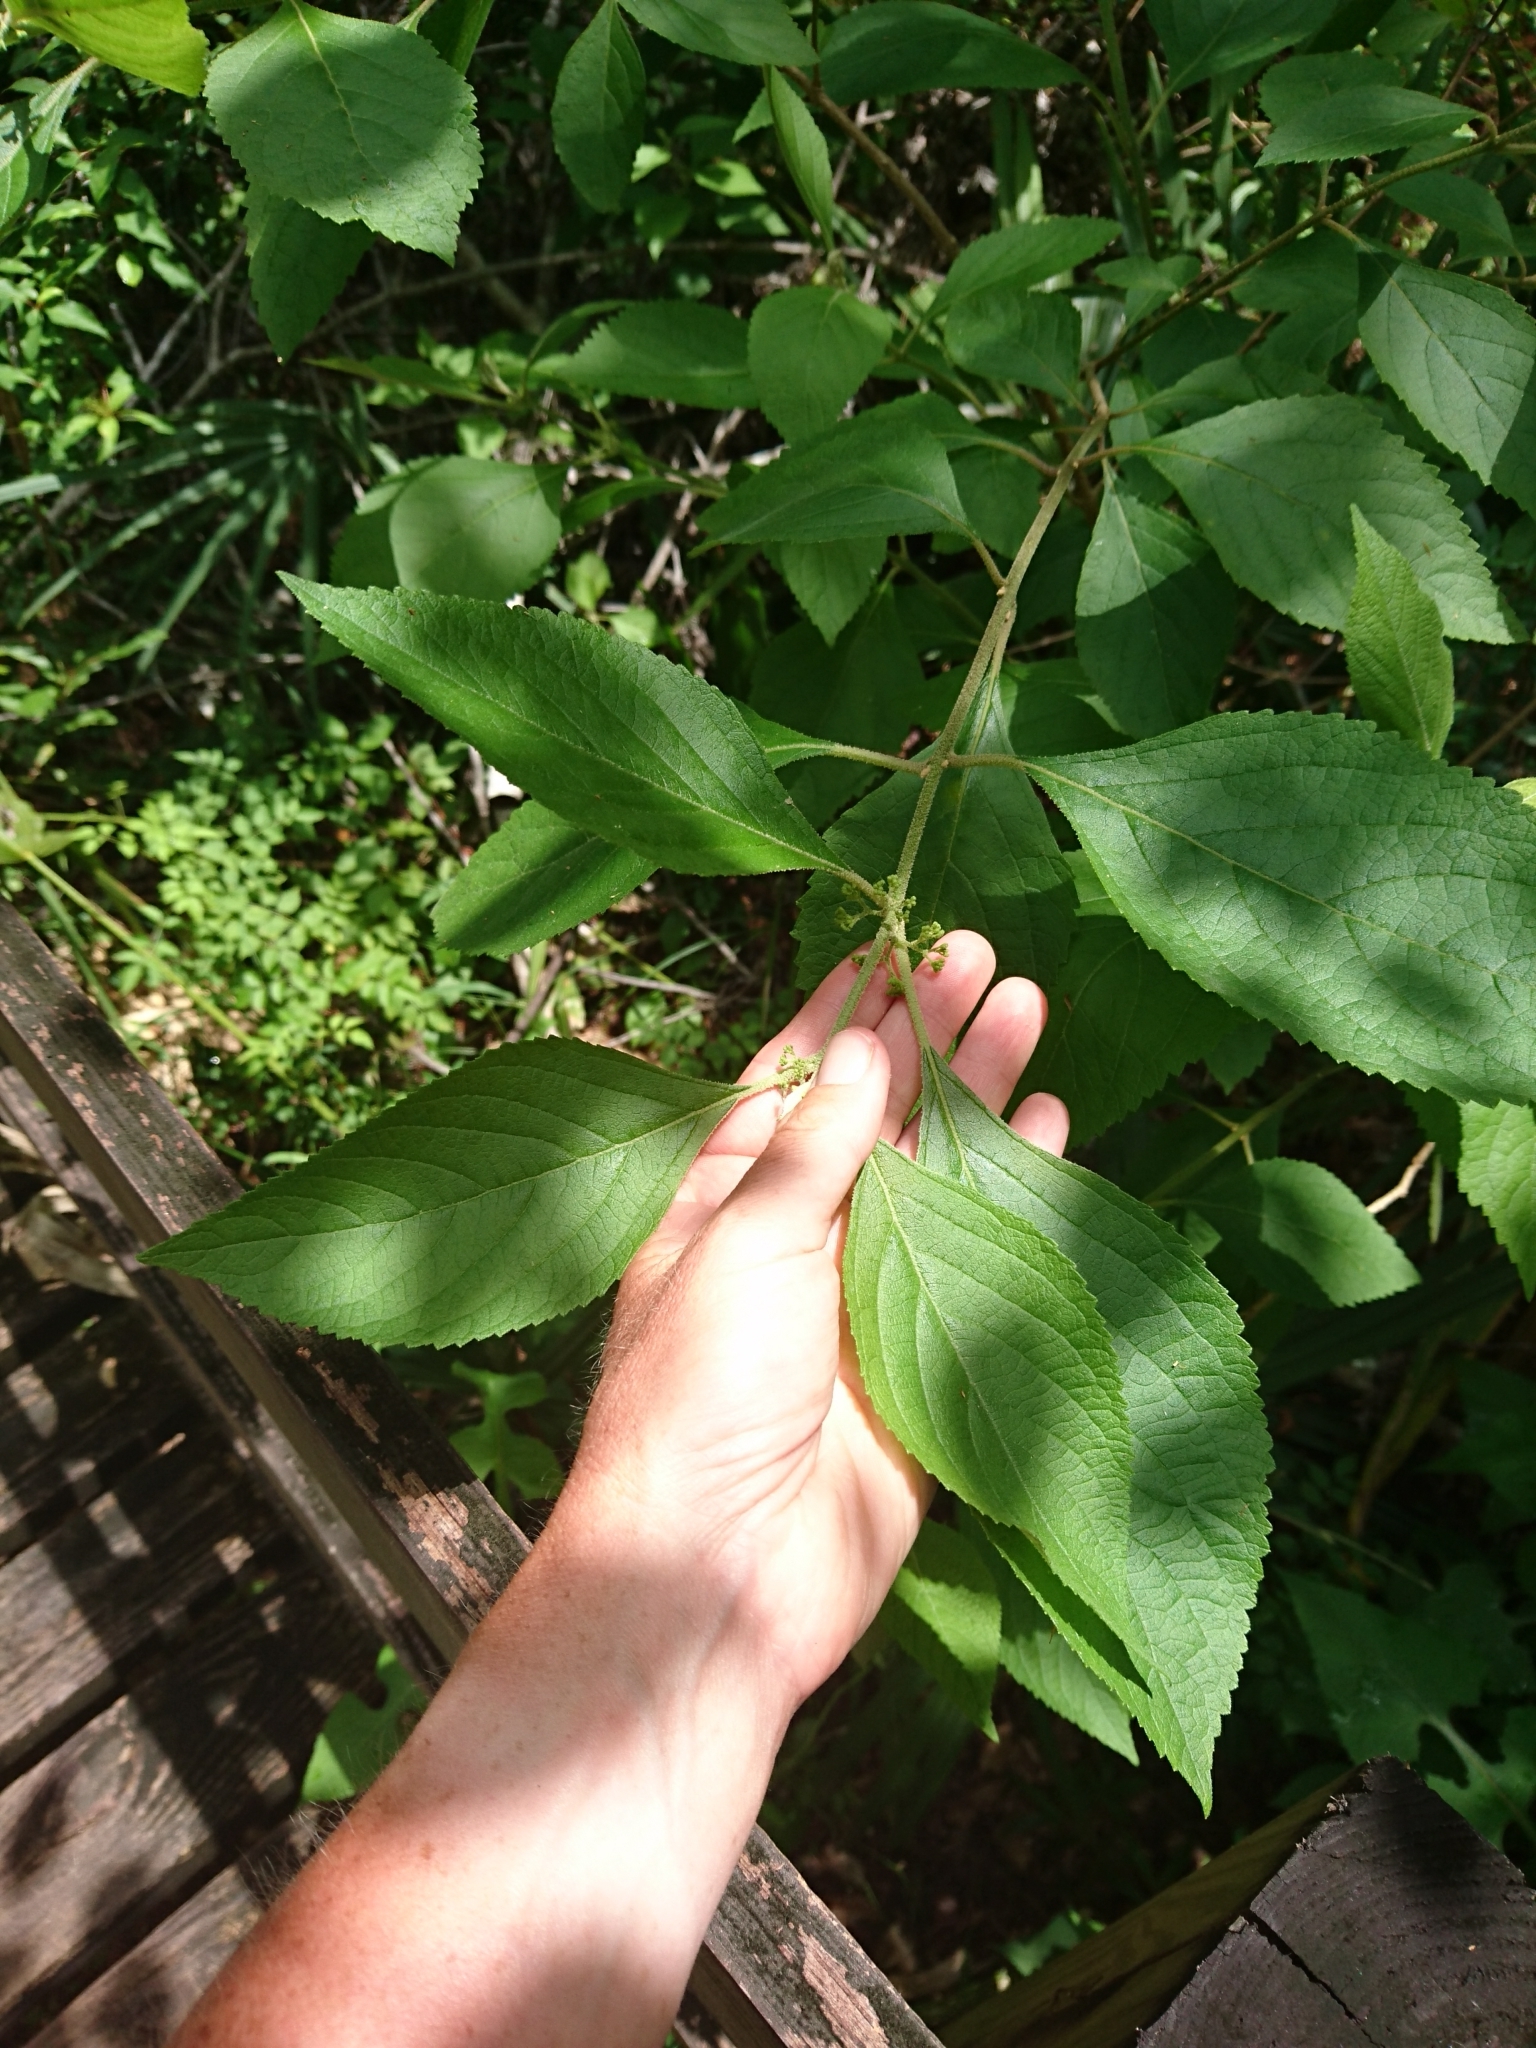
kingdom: Plantae
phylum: Tracheophyta
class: Magnoliopsida
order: Lamiales
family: Lamiaceae
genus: Callicarpa
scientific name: Callicarpa americana
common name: American beautyberry
